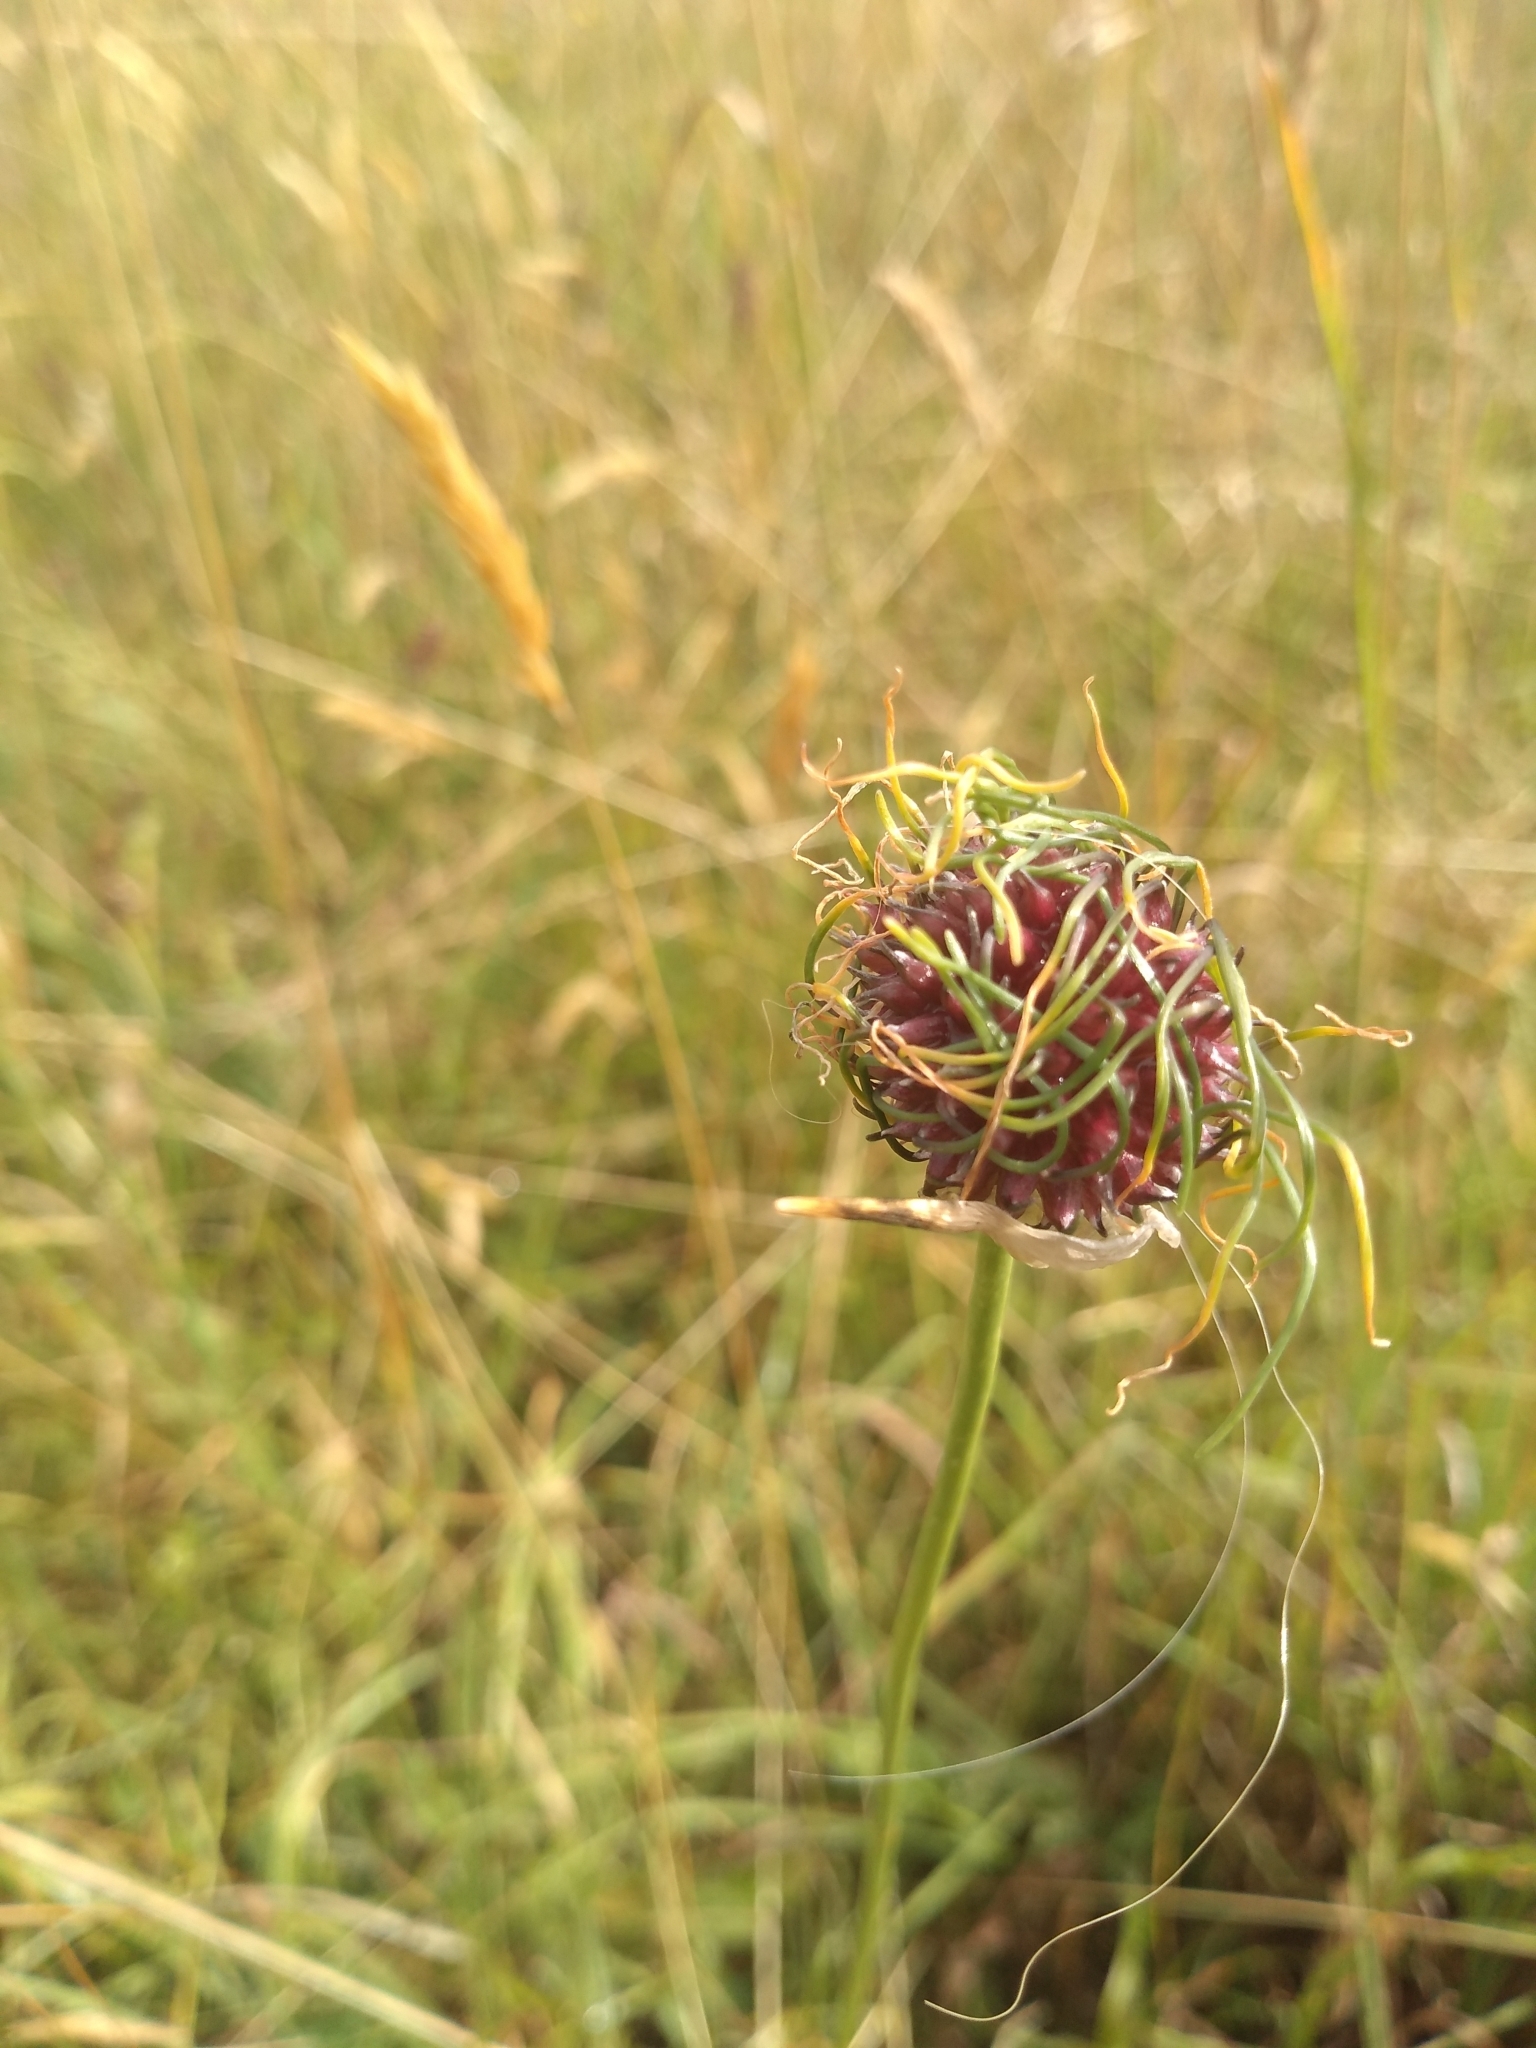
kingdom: Plantae
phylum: Tracheophyta
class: Liliopsida
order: Asparagales
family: Amaryllidaceae
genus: Allium
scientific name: Allium vineale
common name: Crow garlic
